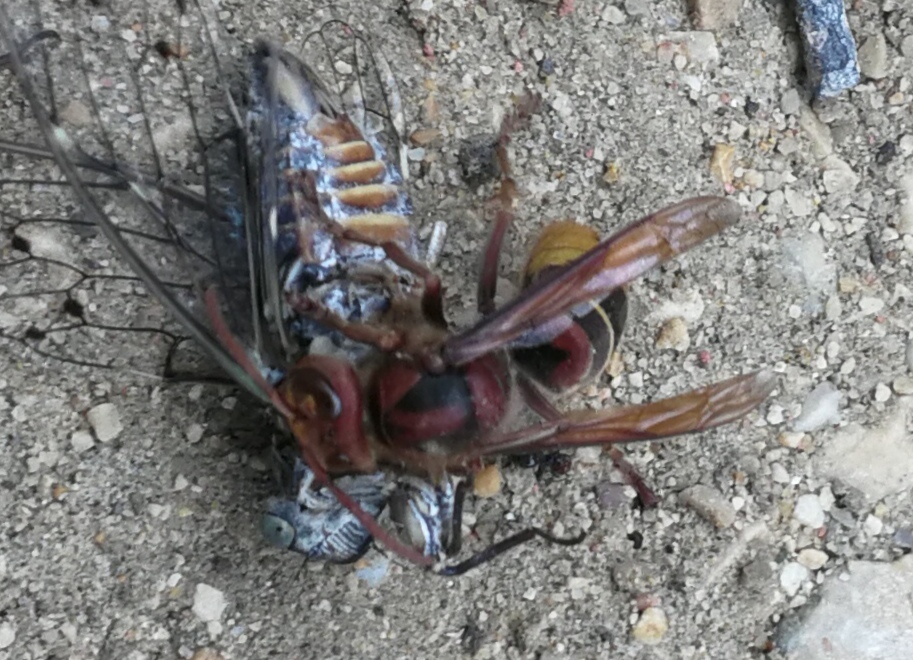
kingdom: Animalia
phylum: Arthropoda
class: Insecta
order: Hymenoptera
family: Vespidae
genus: Vespa
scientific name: Vespa crabro
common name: Hornet
